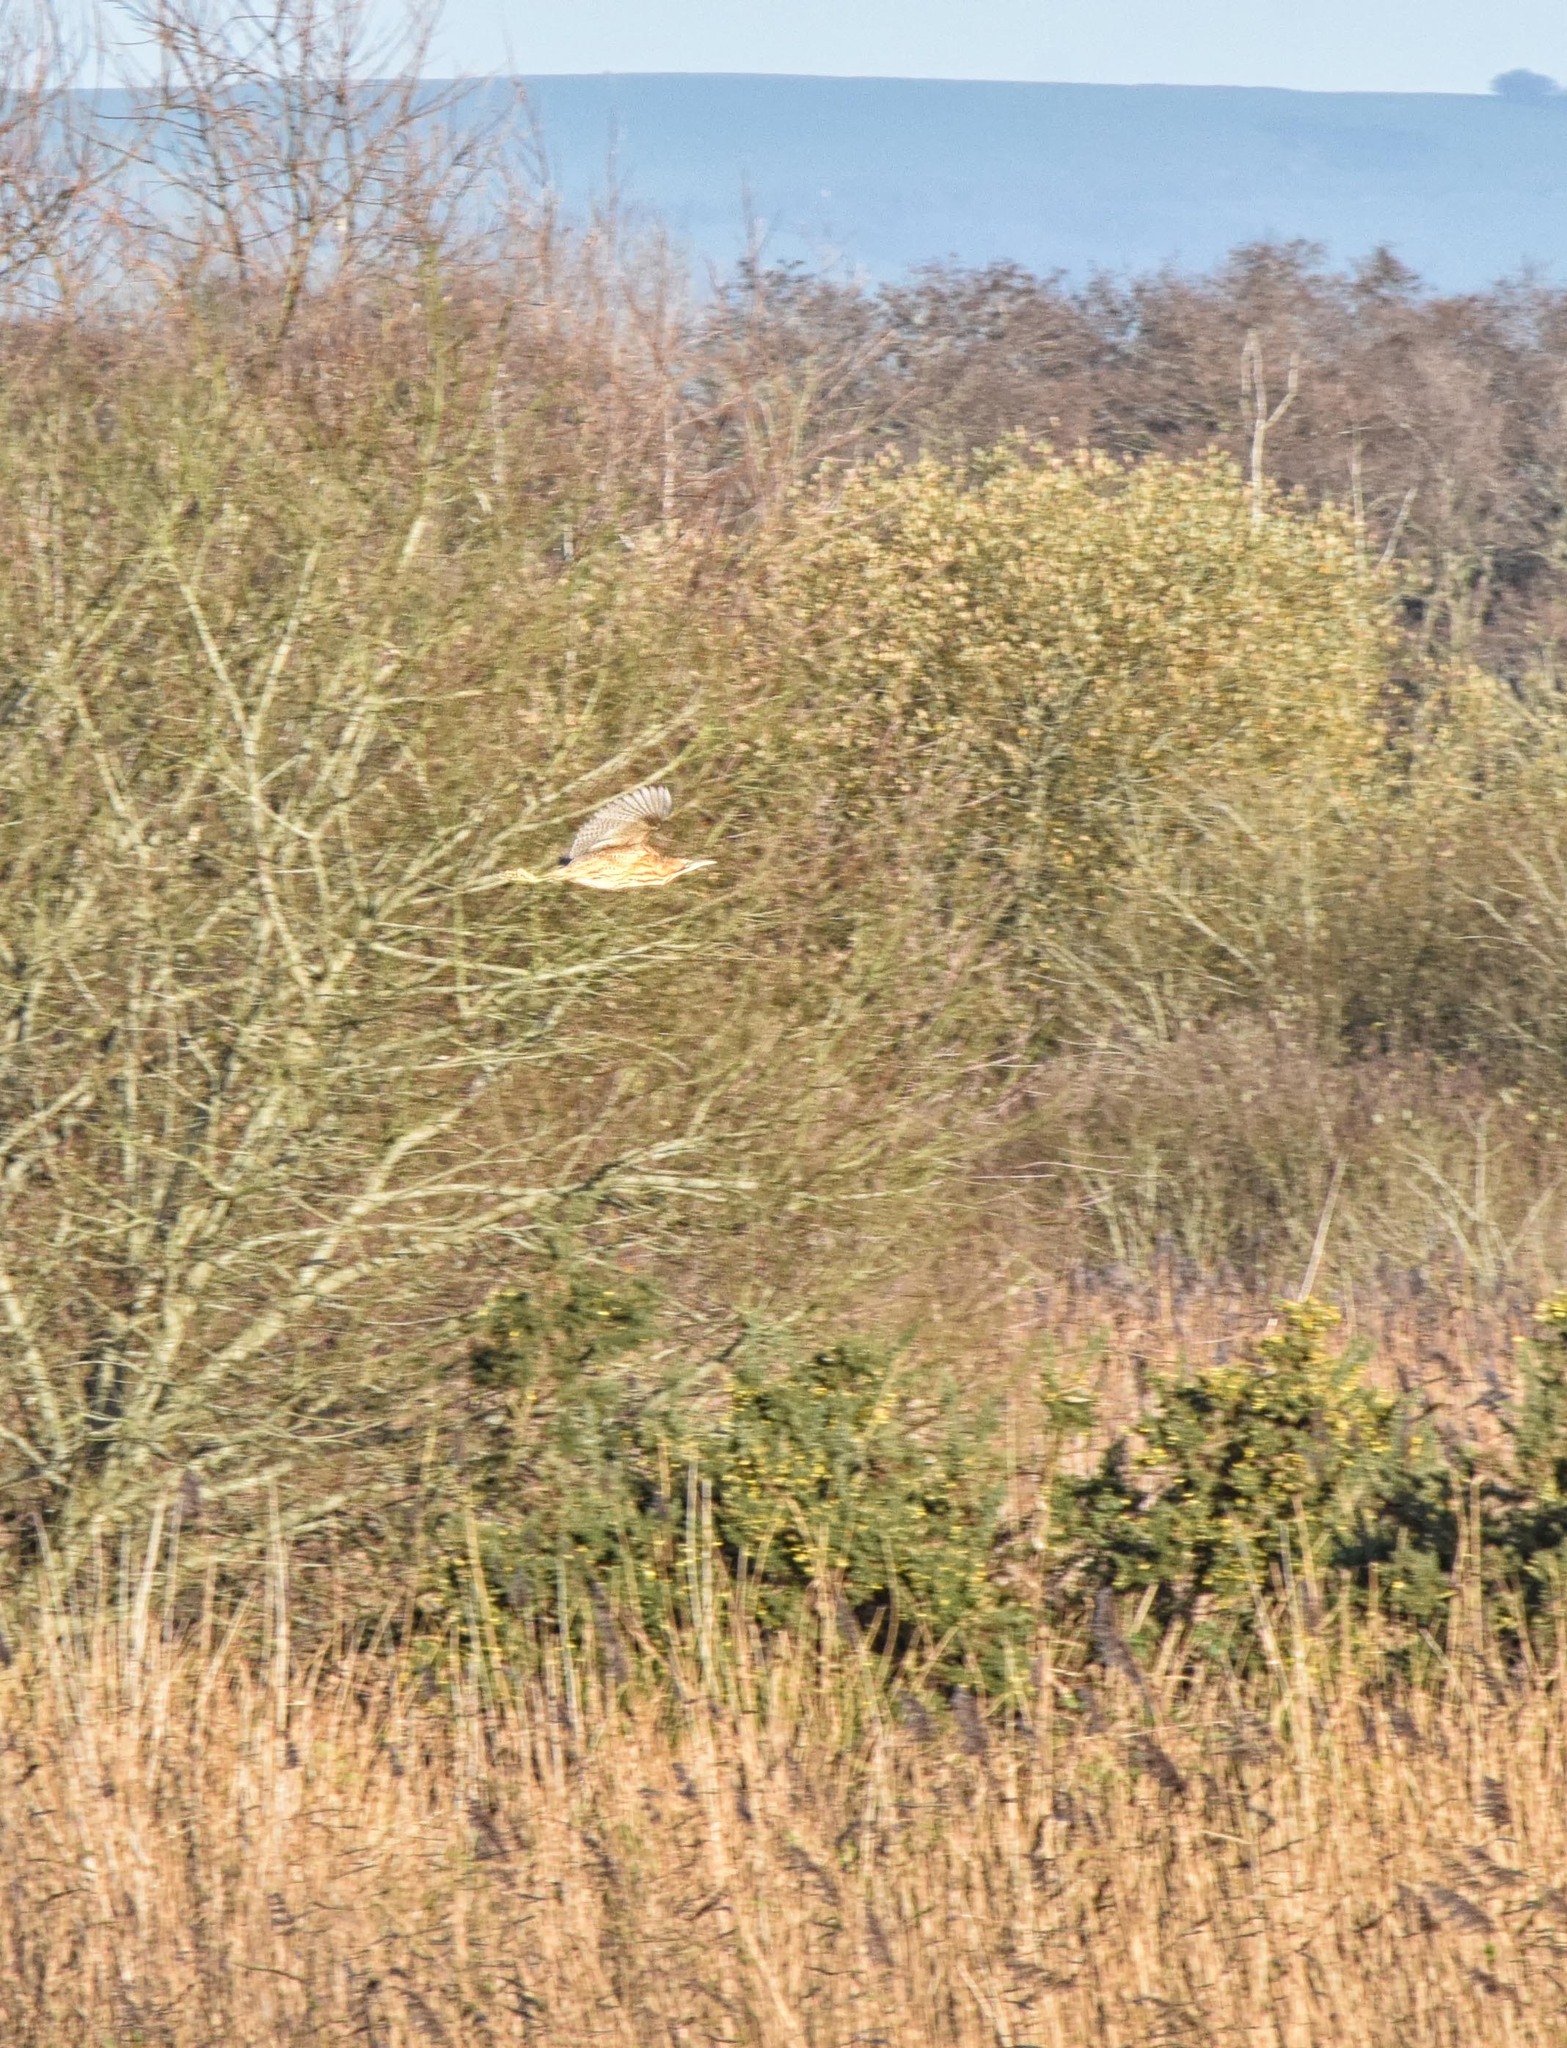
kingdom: Animalia
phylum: Chordata
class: Aves
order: Pelecaniformes
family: Ardeidae
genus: Botaurus
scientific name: Botaurus stellaris
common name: Eurasian bittern
